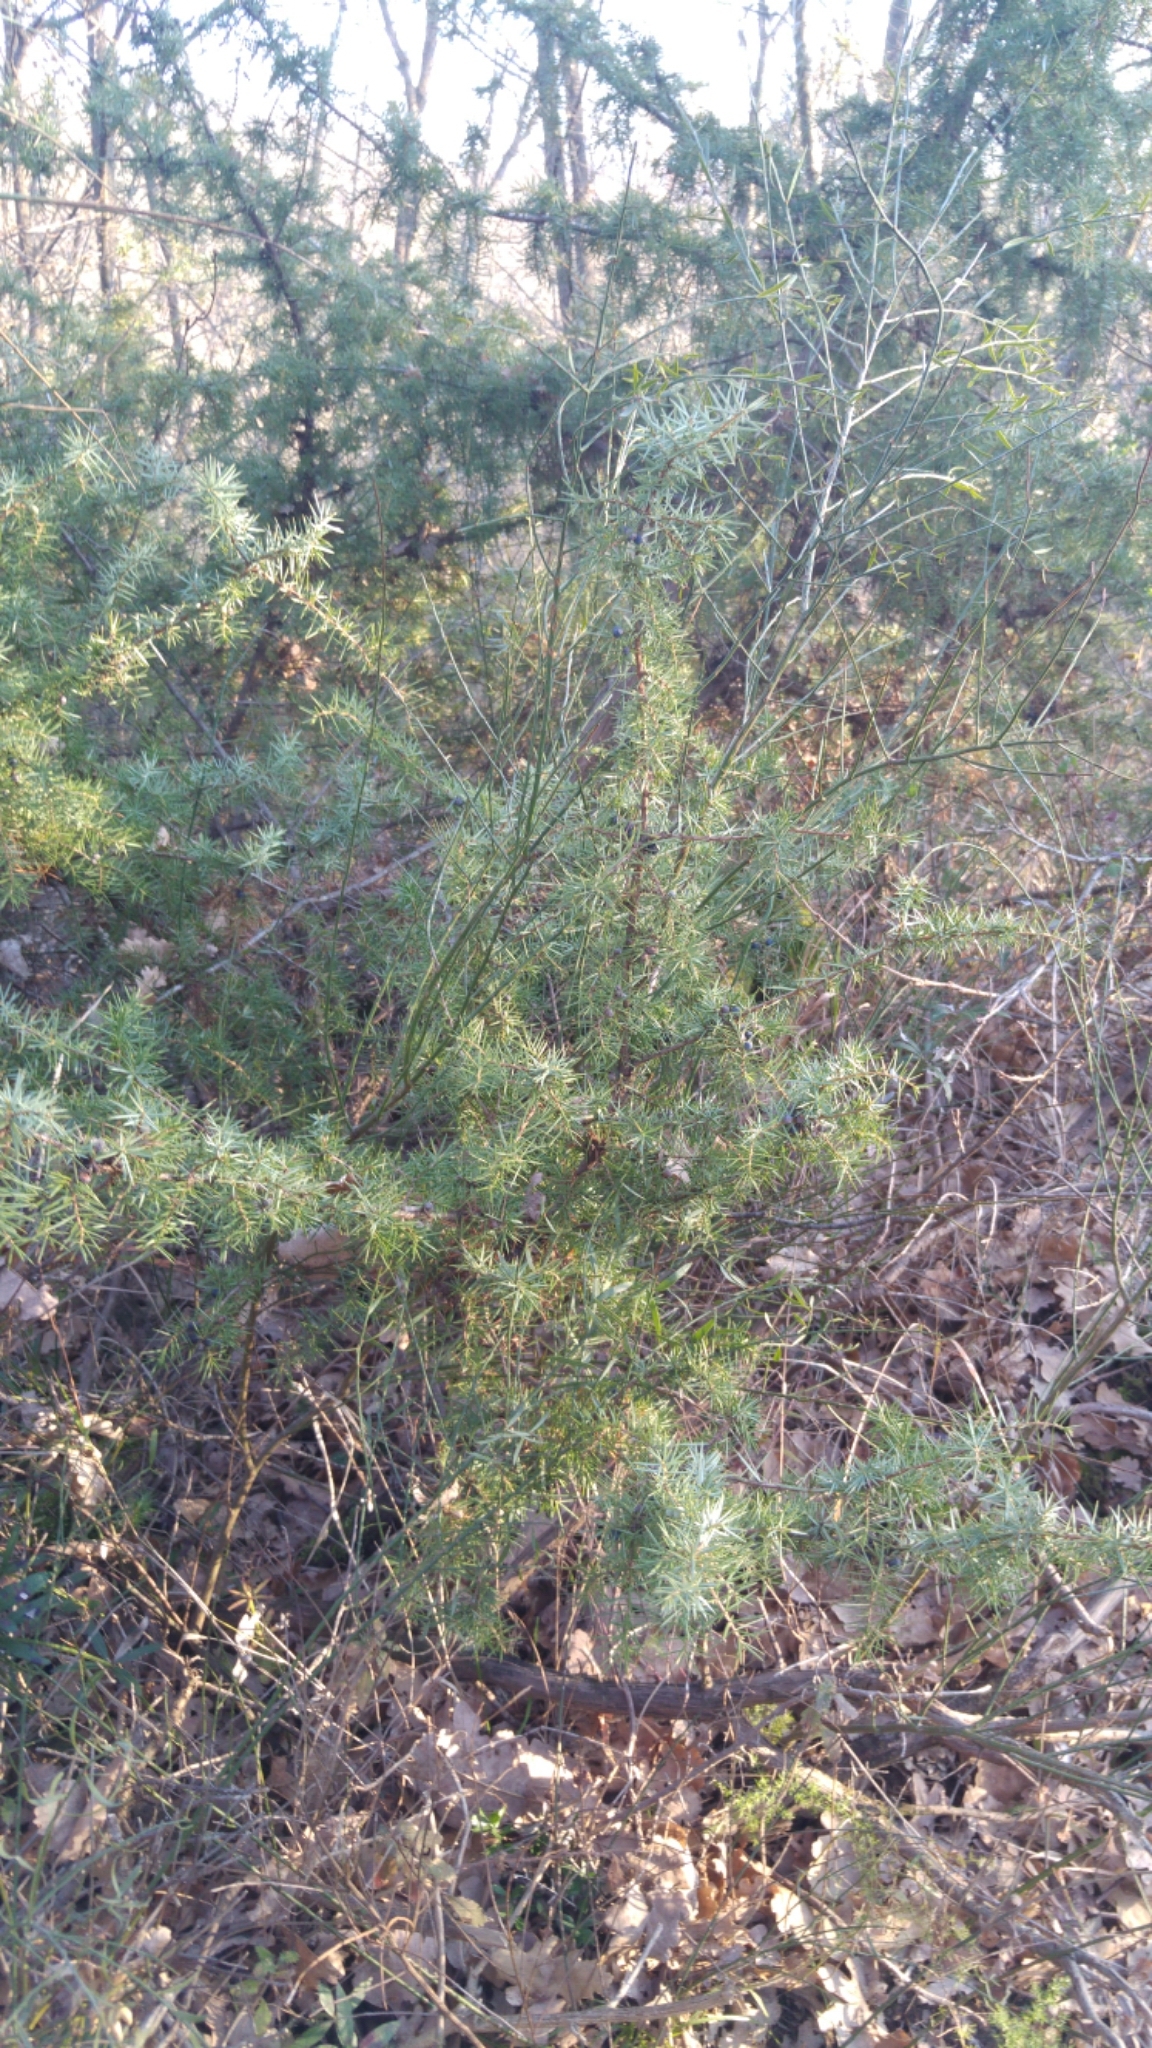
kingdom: Plantae
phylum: Tracheophyta
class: Pinopsida
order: Pinales
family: Cupressaceae
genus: Juniperus
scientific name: Juniperus communis
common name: Common juniper
